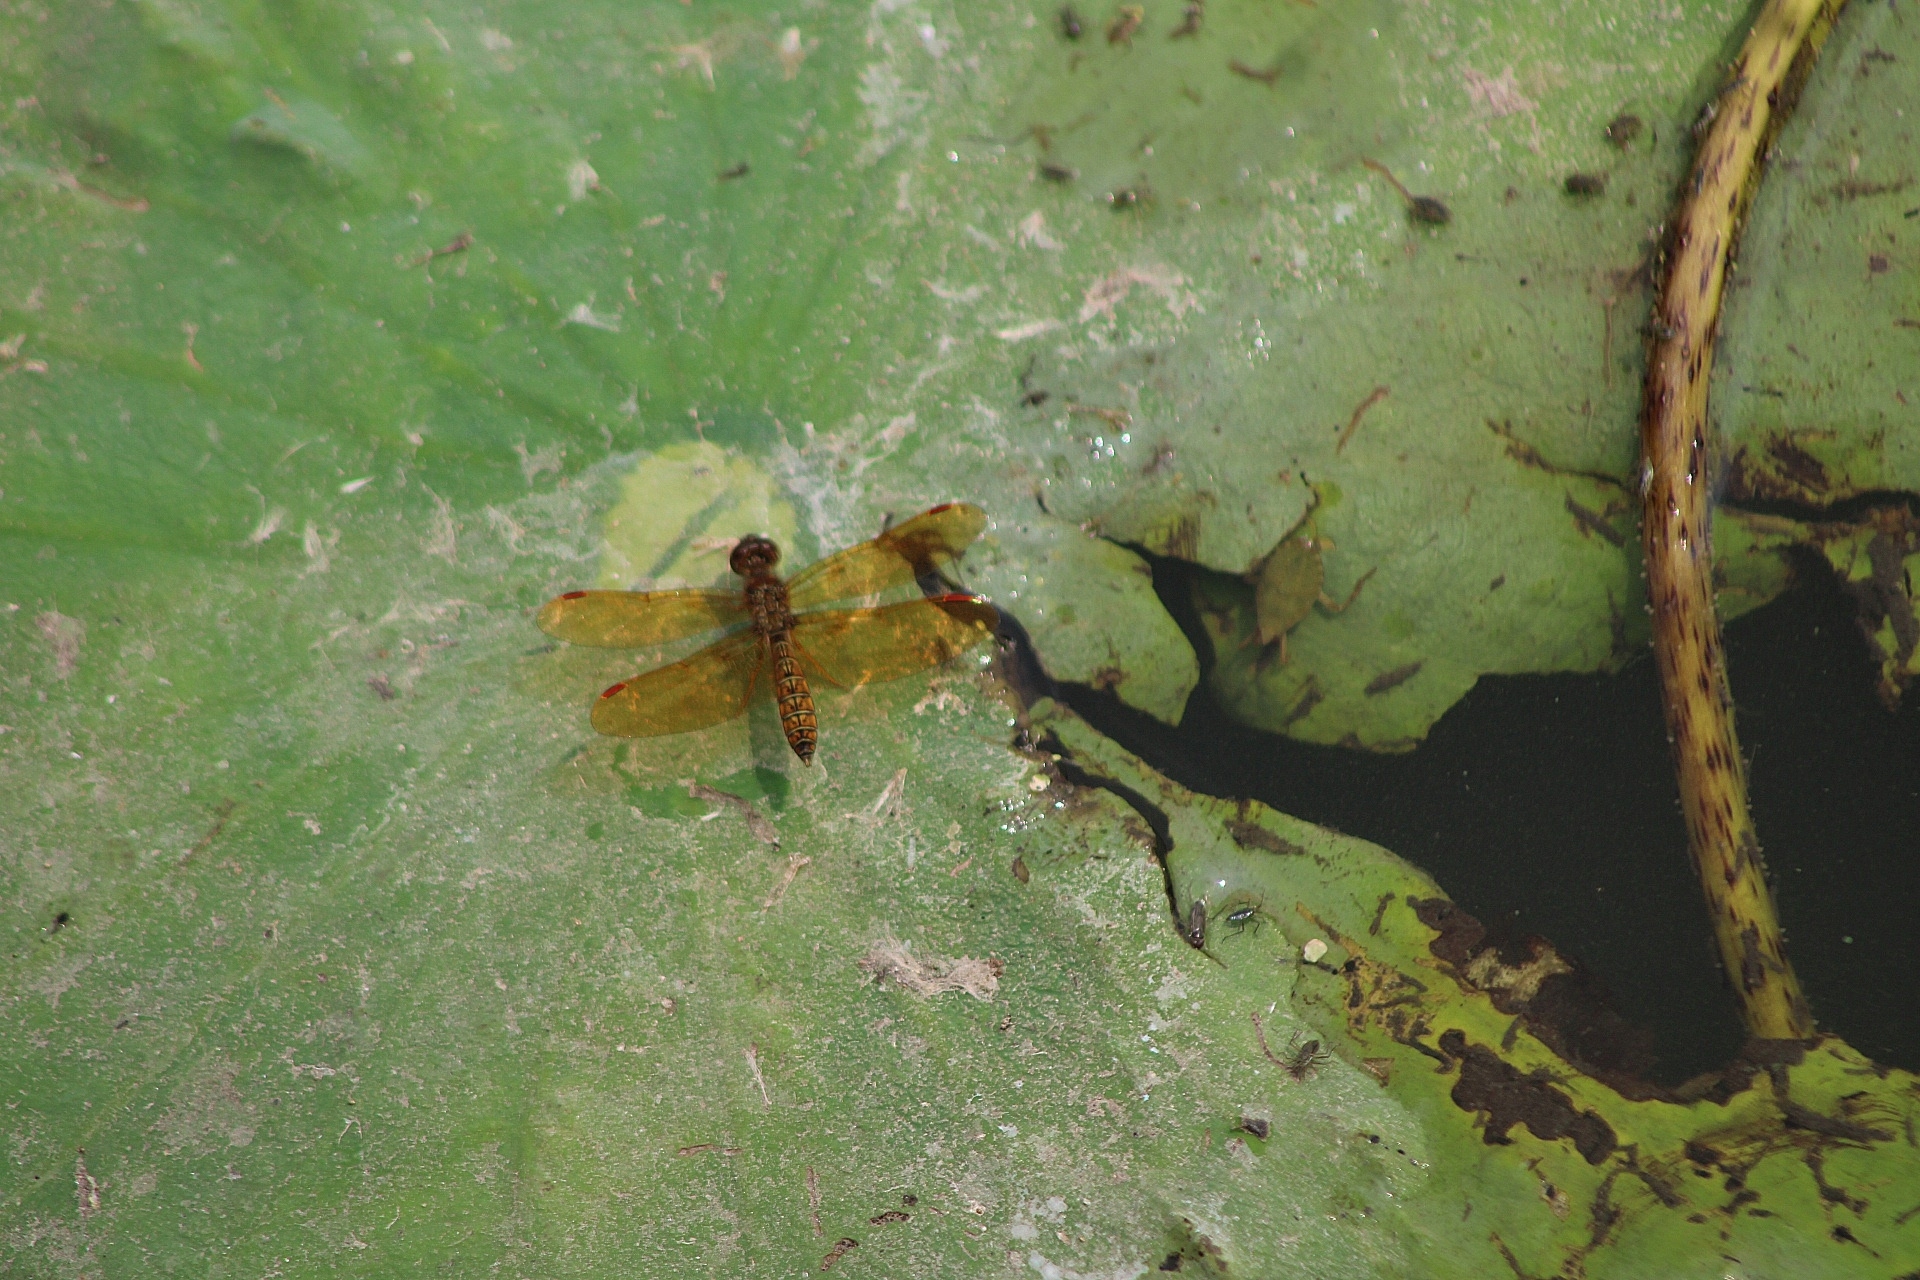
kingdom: Animalia
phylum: Arthropoda
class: Insecta
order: Odonata
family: Libellulidae
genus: Perithemis
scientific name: Perithemis tenera
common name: Eastern amberwing
